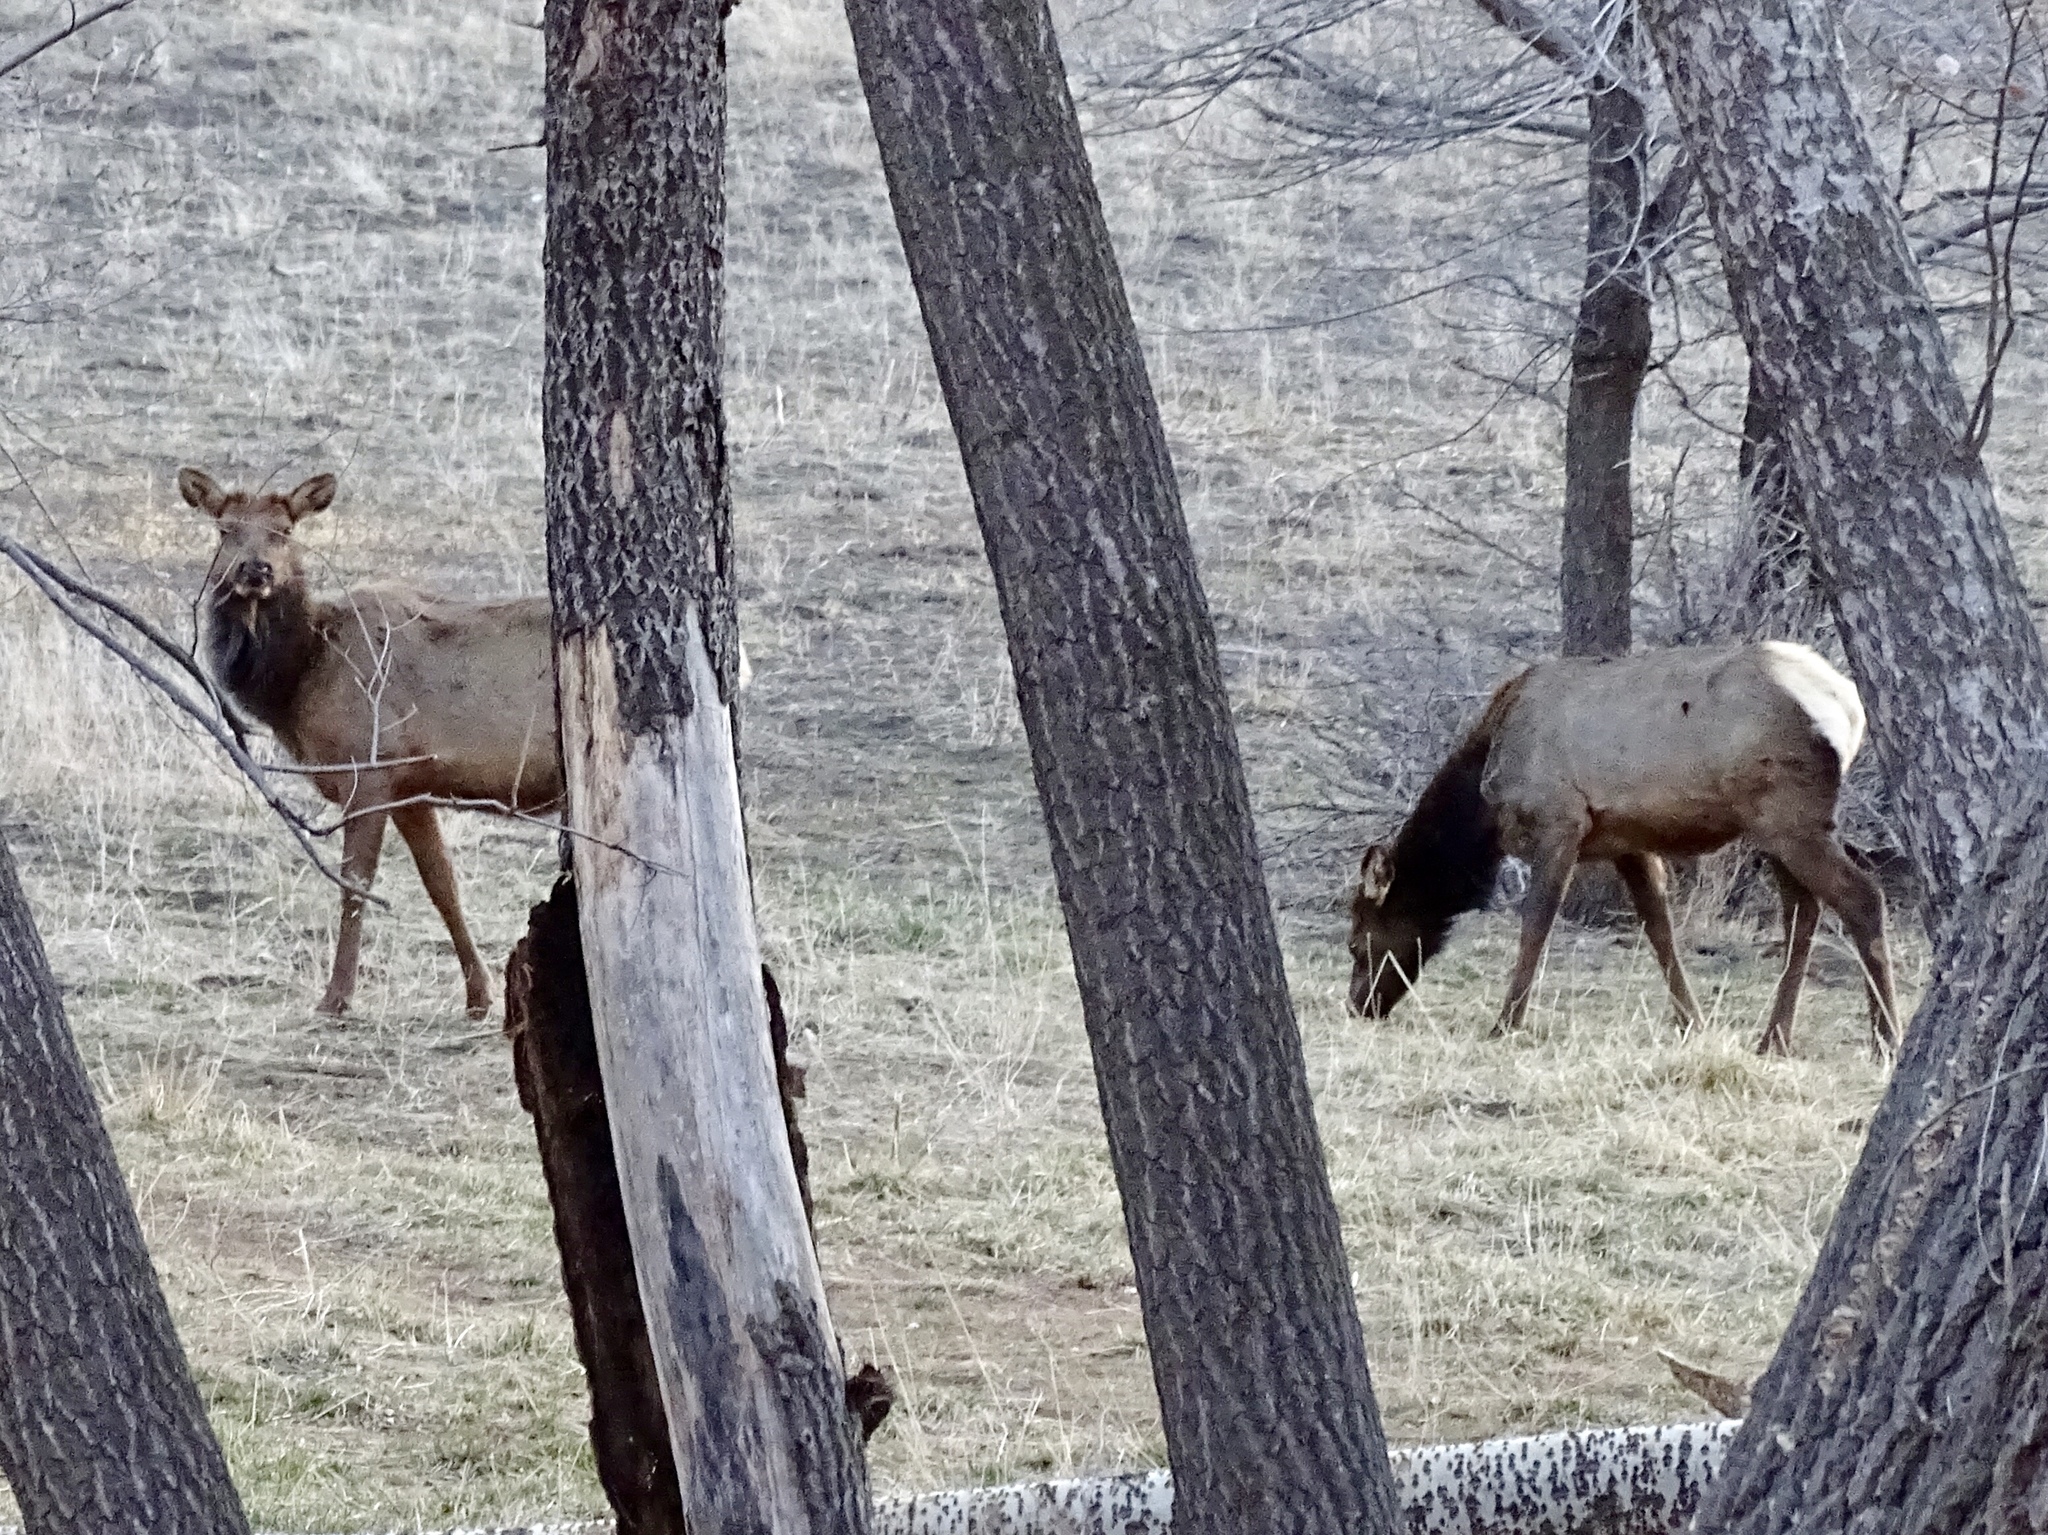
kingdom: Animalia
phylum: Chordata
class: Mammalia
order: Artiodactyla
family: Cervidae
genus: Cervus
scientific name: Cervus elaphus
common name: Red deer
